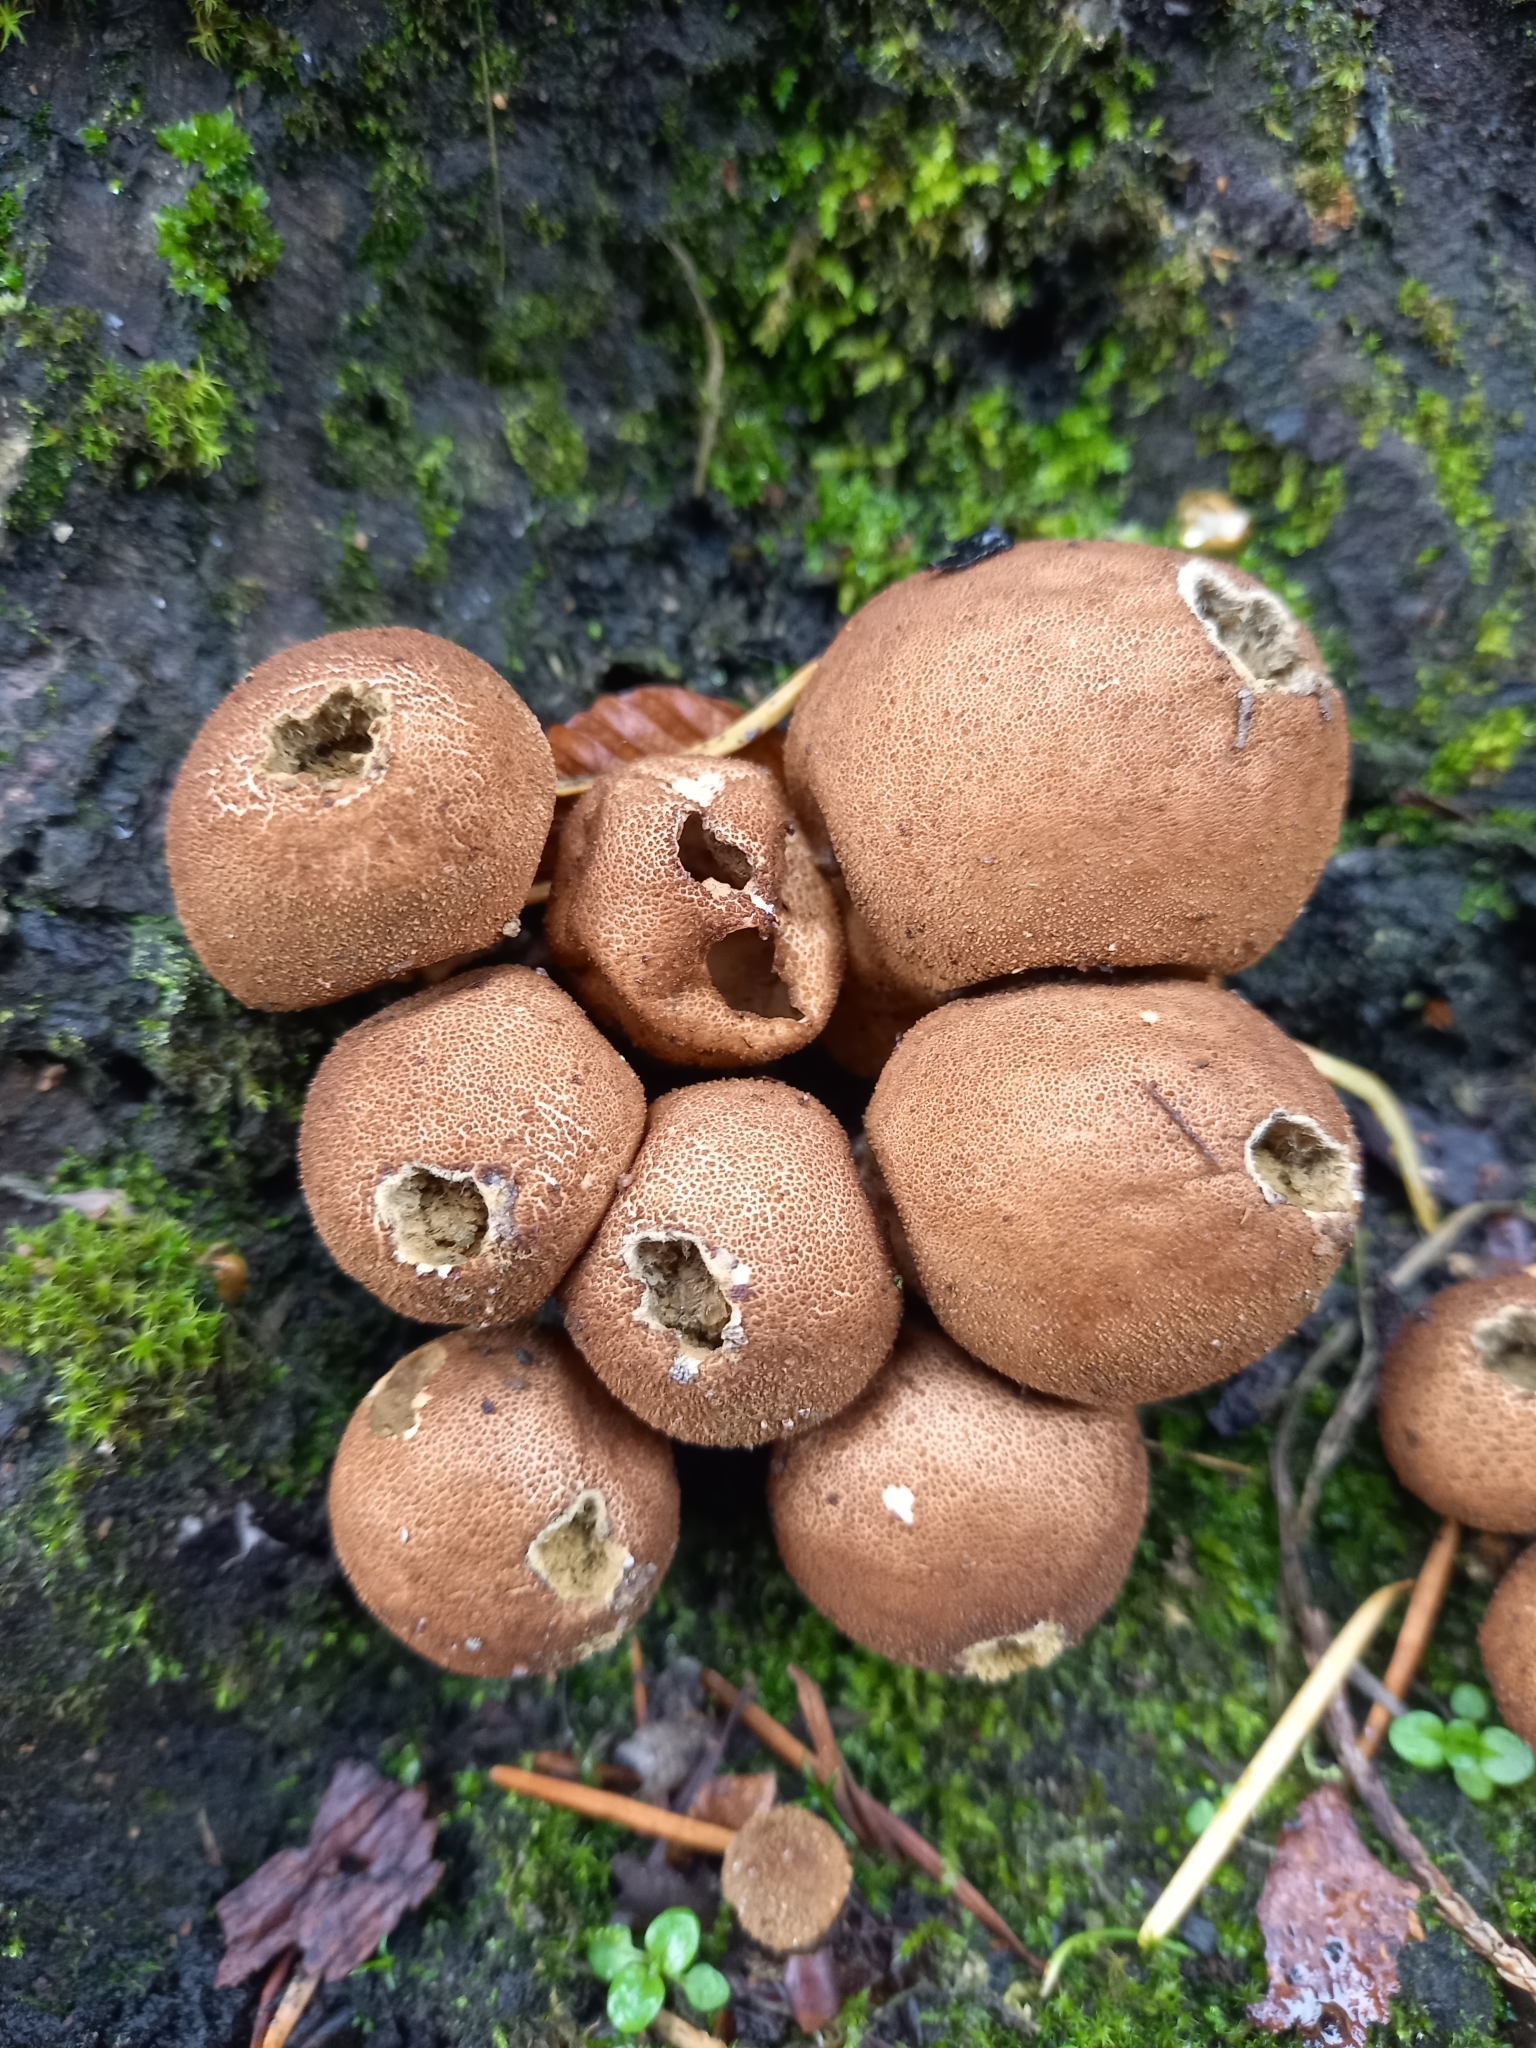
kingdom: Fungi
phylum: Basidiomycota
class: Agaricomycetes
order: Agaricales
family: Lycoperdaceae
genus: Apioperdon
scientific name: Apioperdon pyriforme
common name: Pear-shaped puffball
